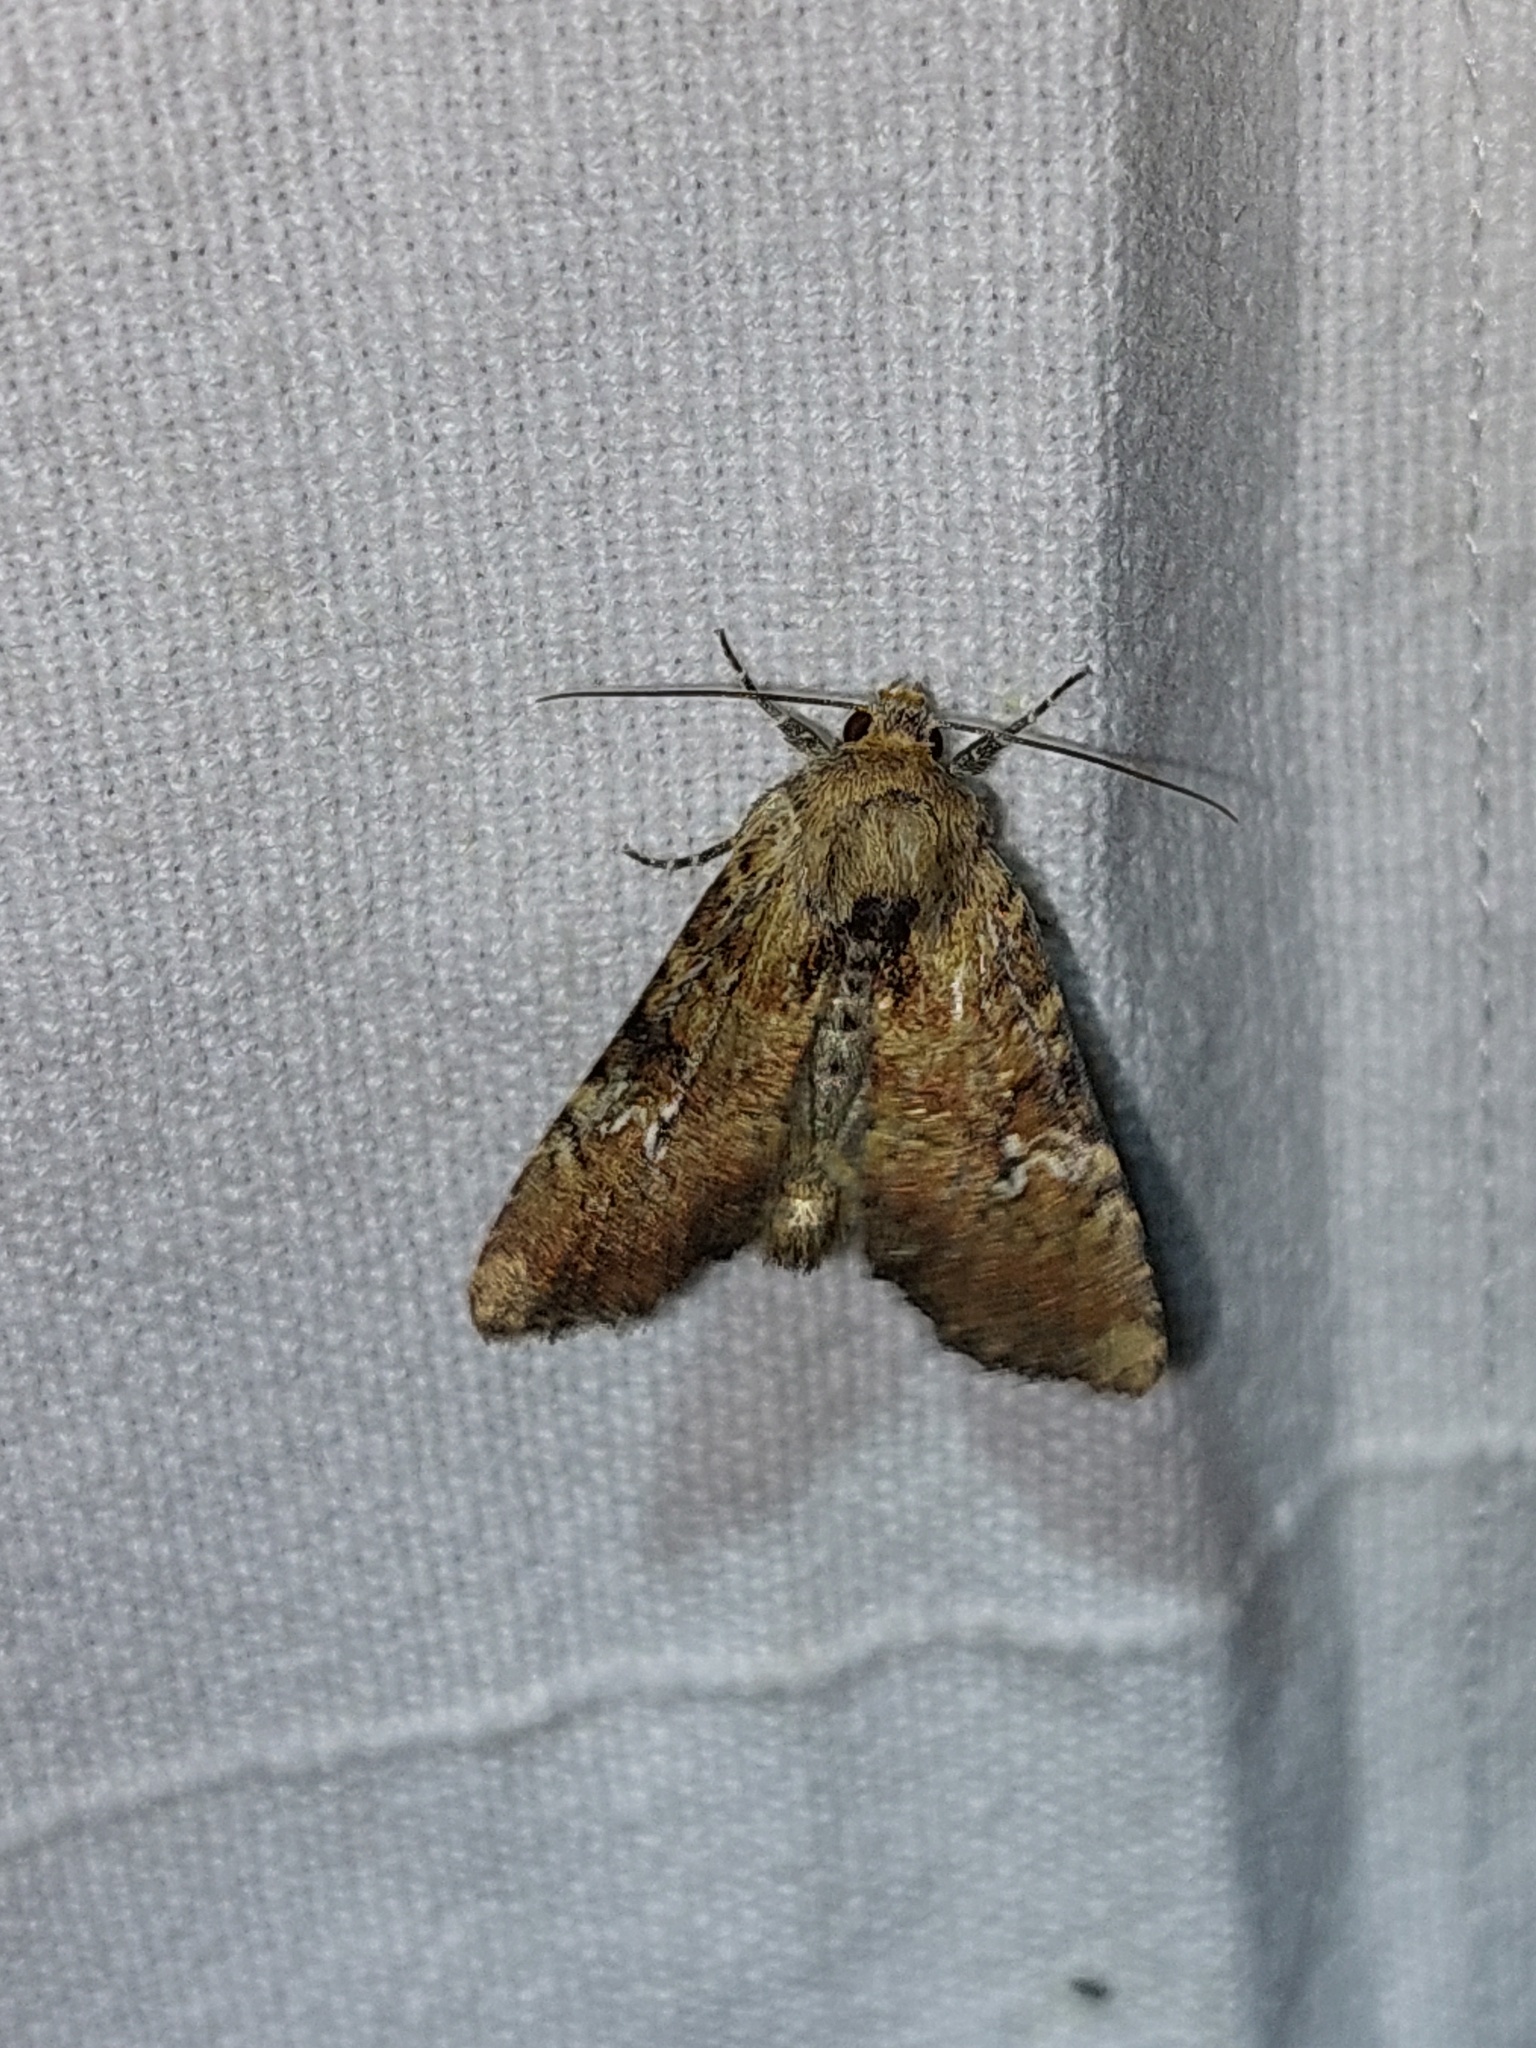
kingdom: Animalia
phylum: Arthropoda
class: Insecta
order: Lepidoptera
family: Noctuidae
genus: Loscopia
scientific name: Loscopia scolopacina
